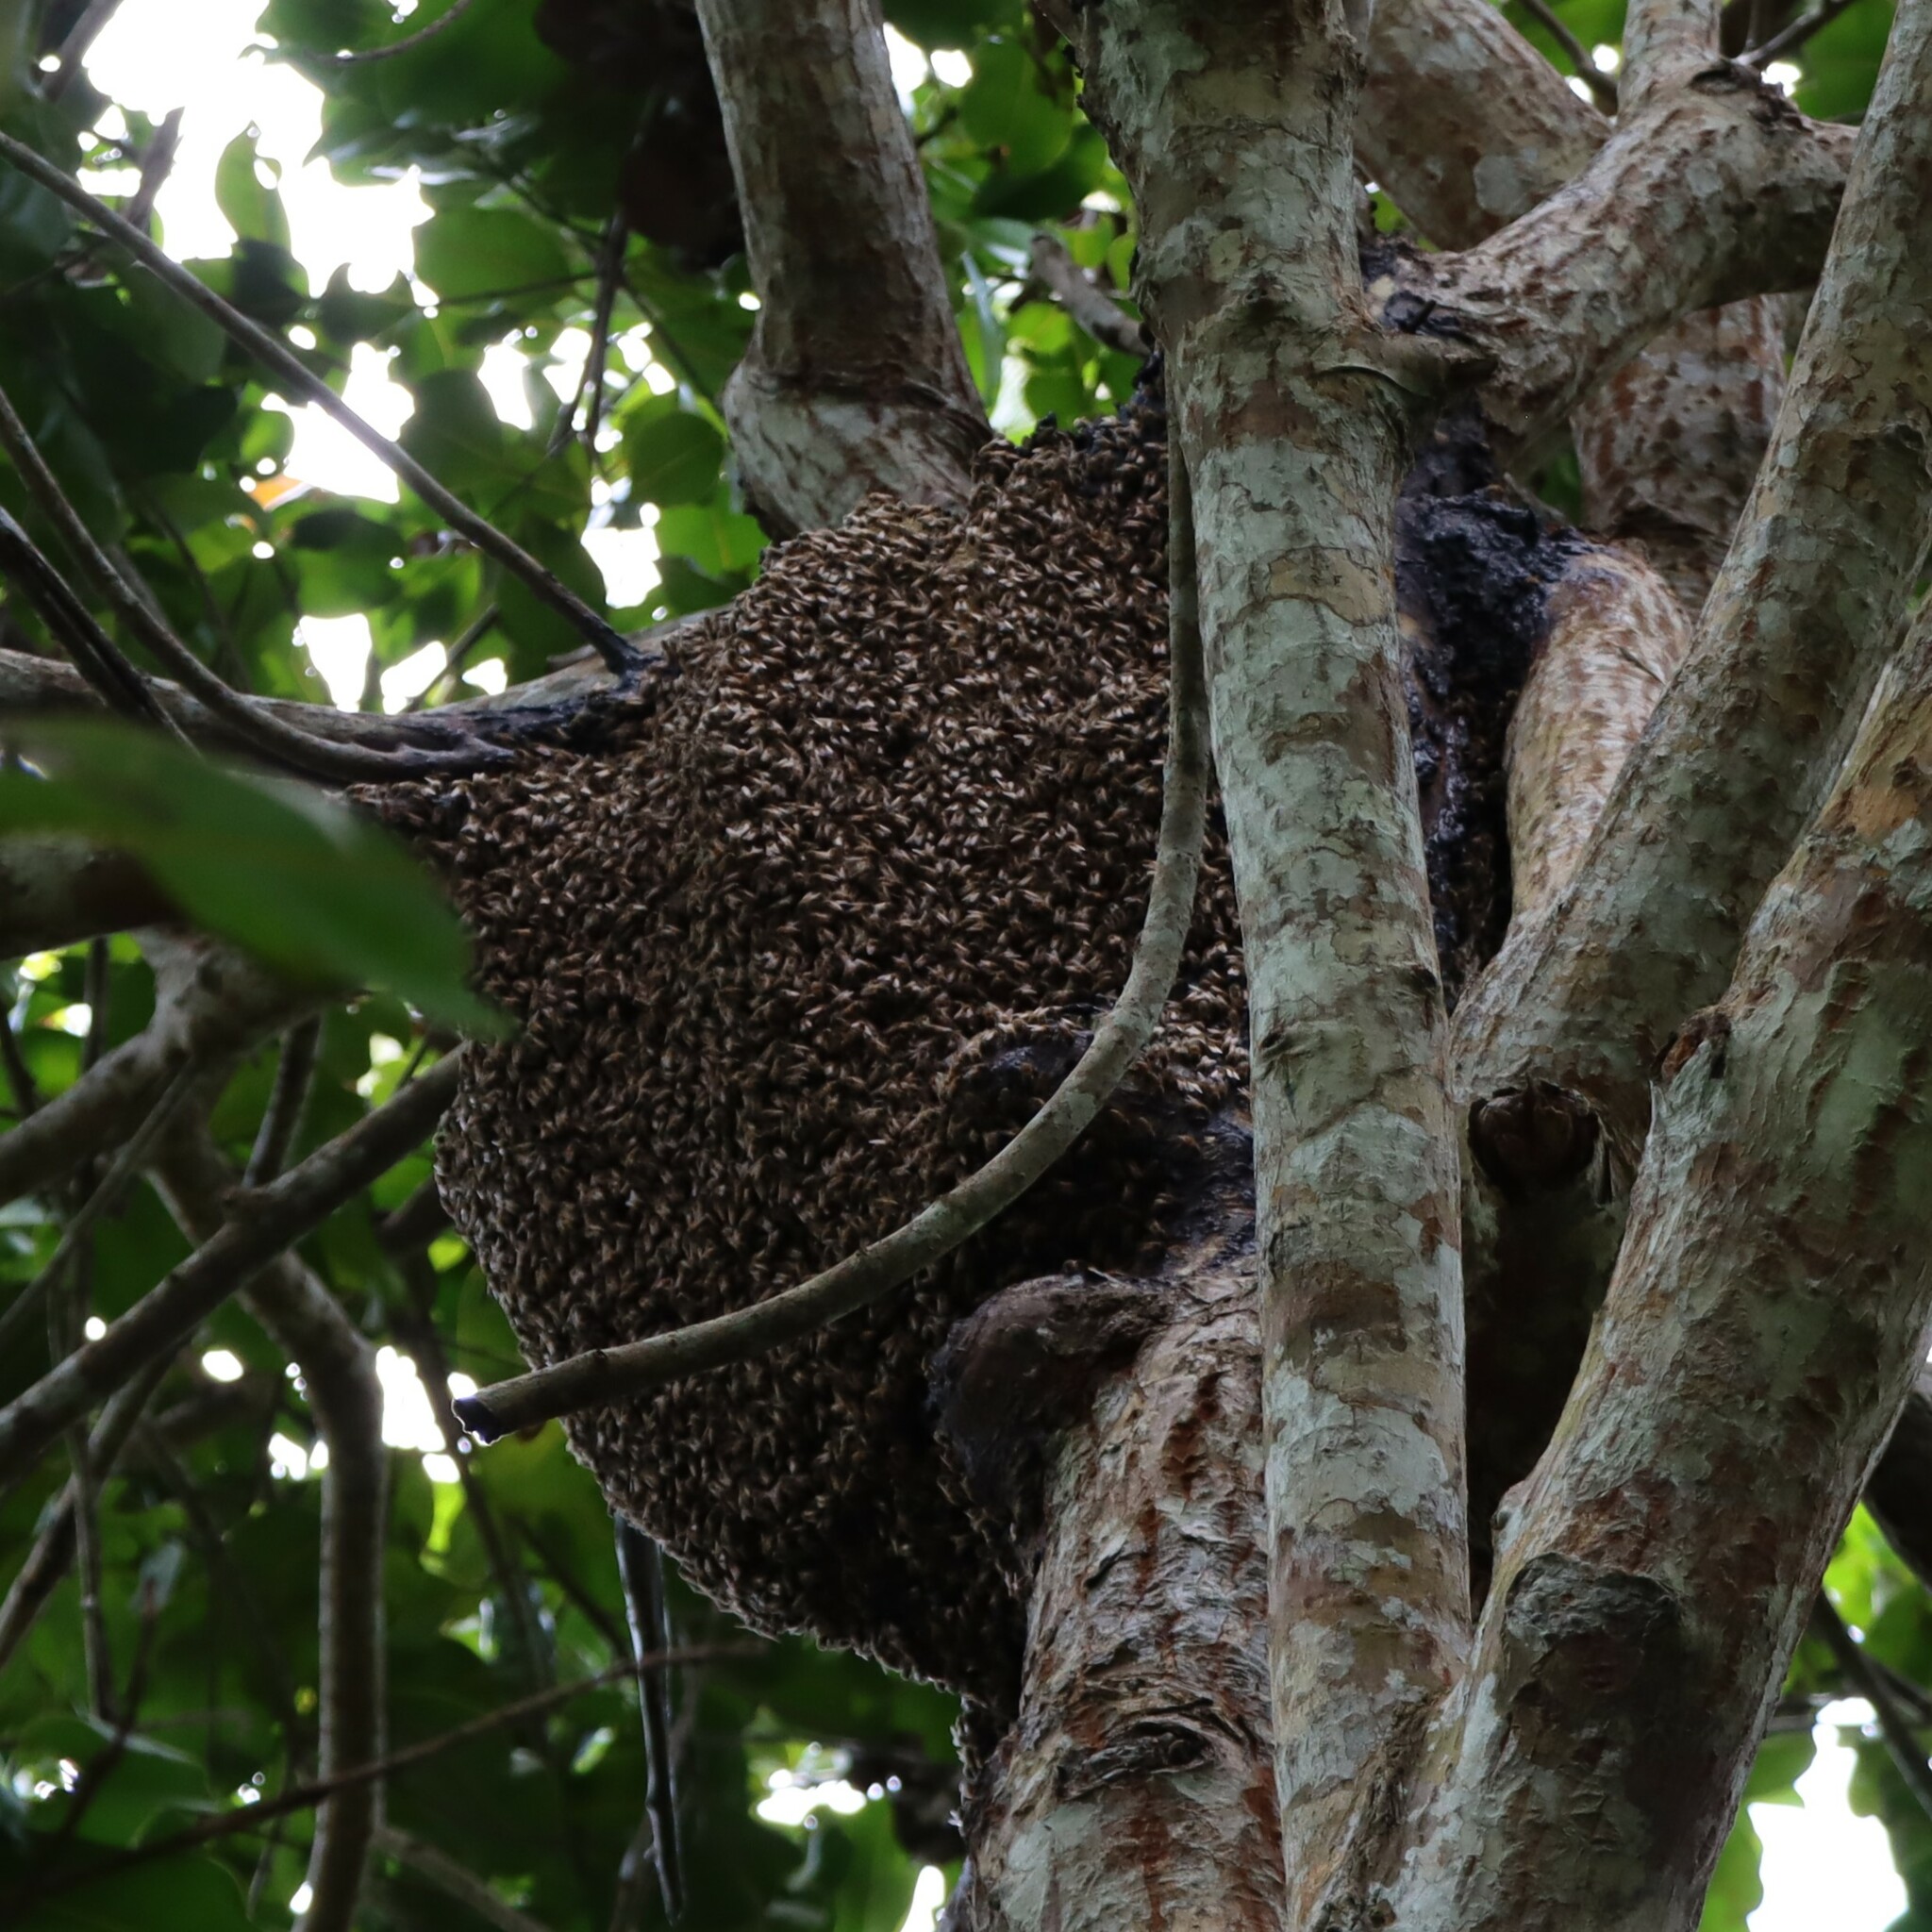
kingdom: Animalia
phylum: Arthropoda
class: Insecta
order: Hymenoptera
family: Apidae
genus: Apis
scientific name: Apis mellifera
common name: Honey bee
